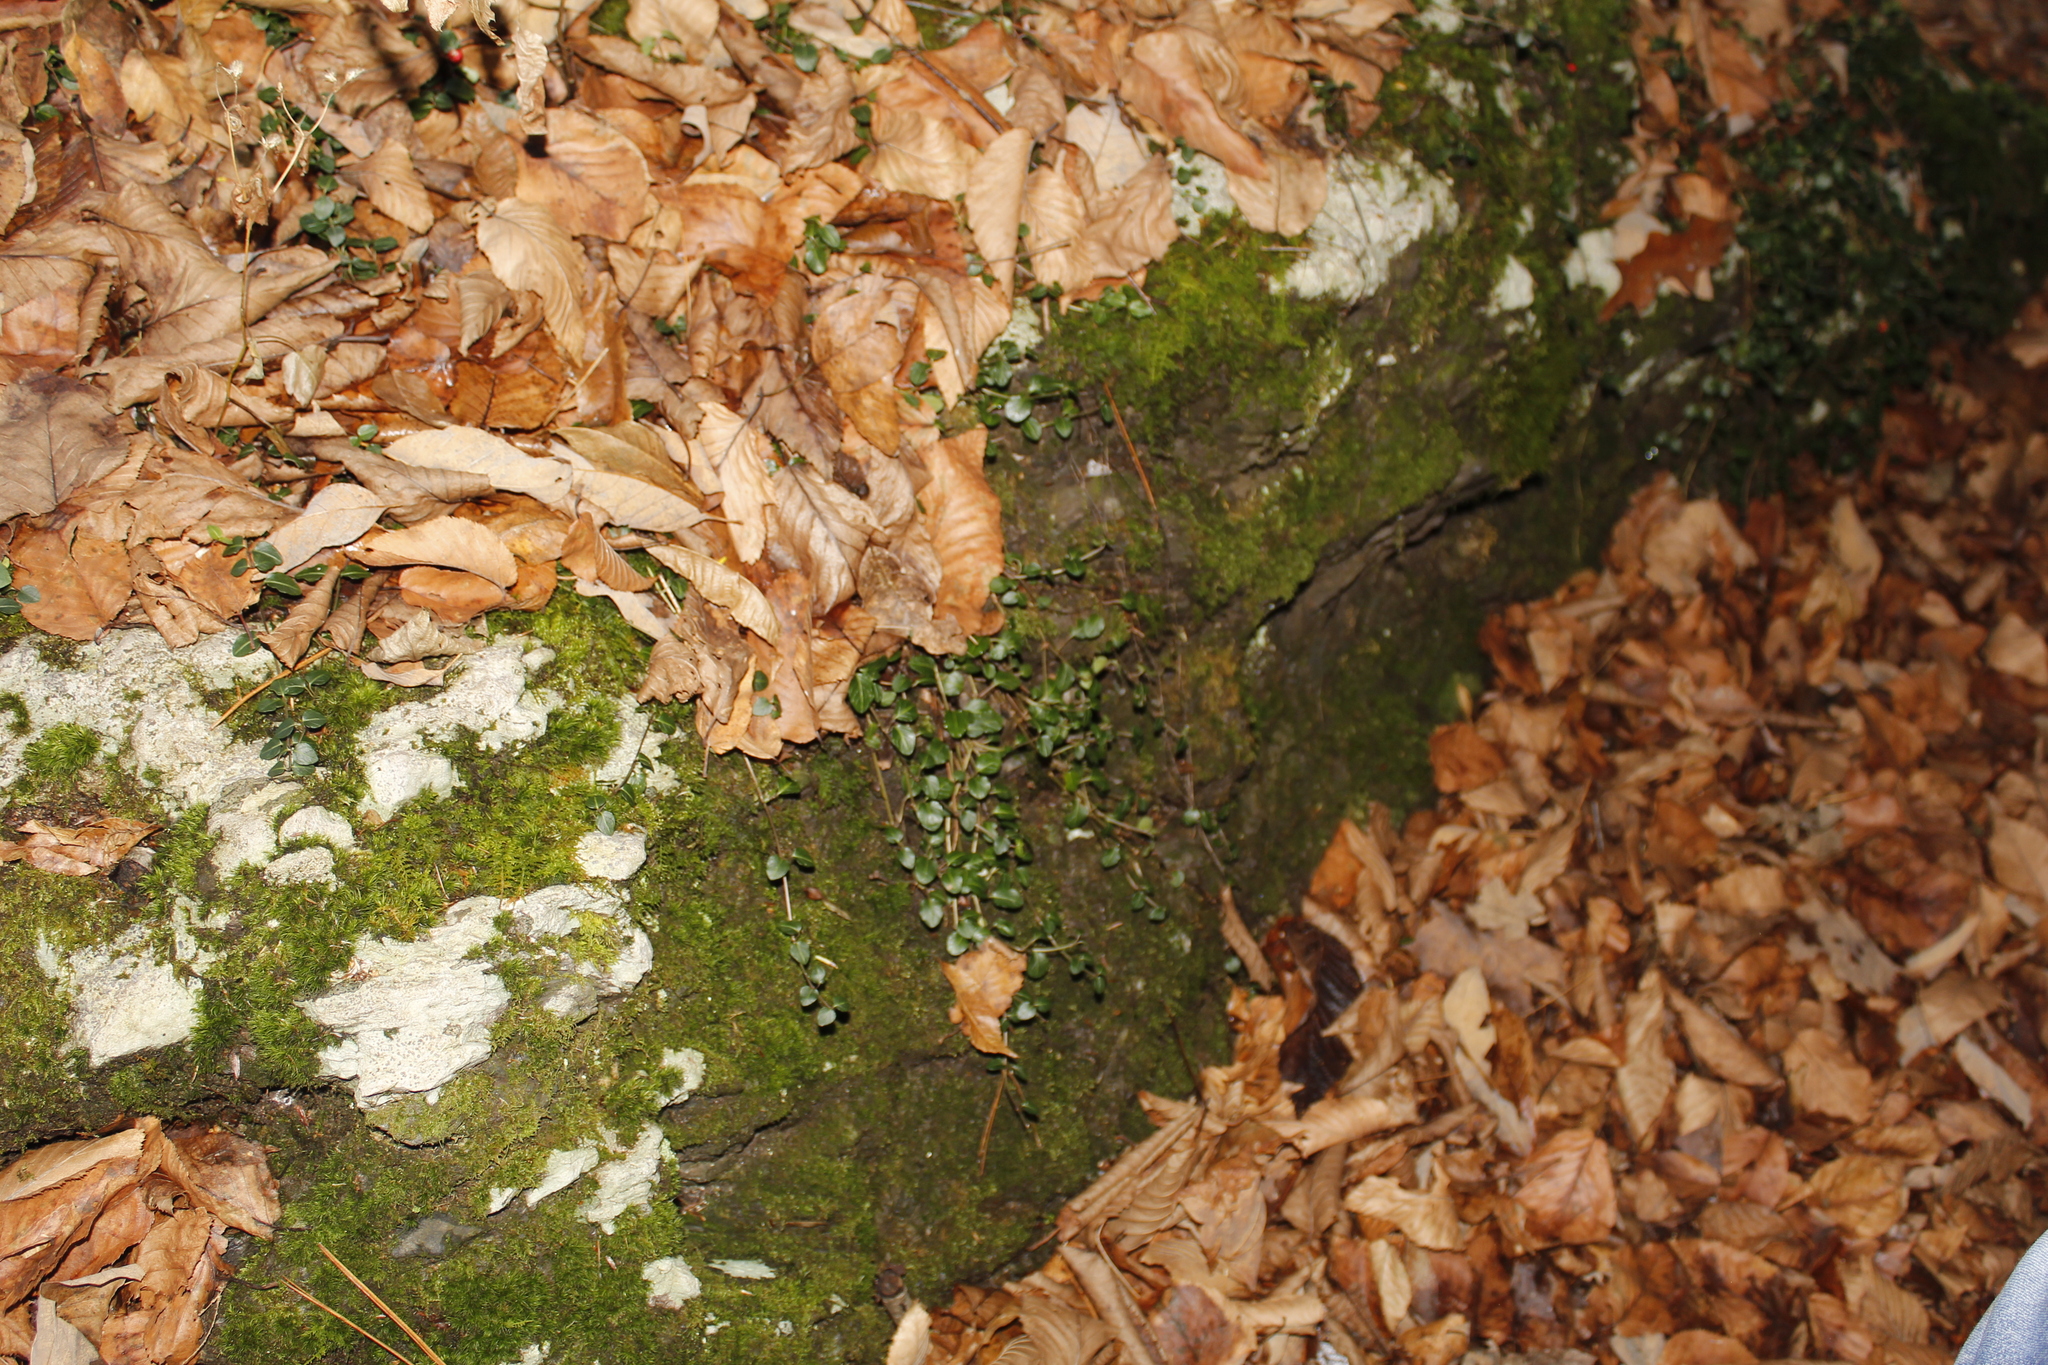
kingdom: Plantae
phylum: Tracheophyta
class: Magnoliopsida
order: Gentianales
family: Rubiaceae
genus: Mitchella
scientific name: Mitchella repens
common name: Partridge-berry
